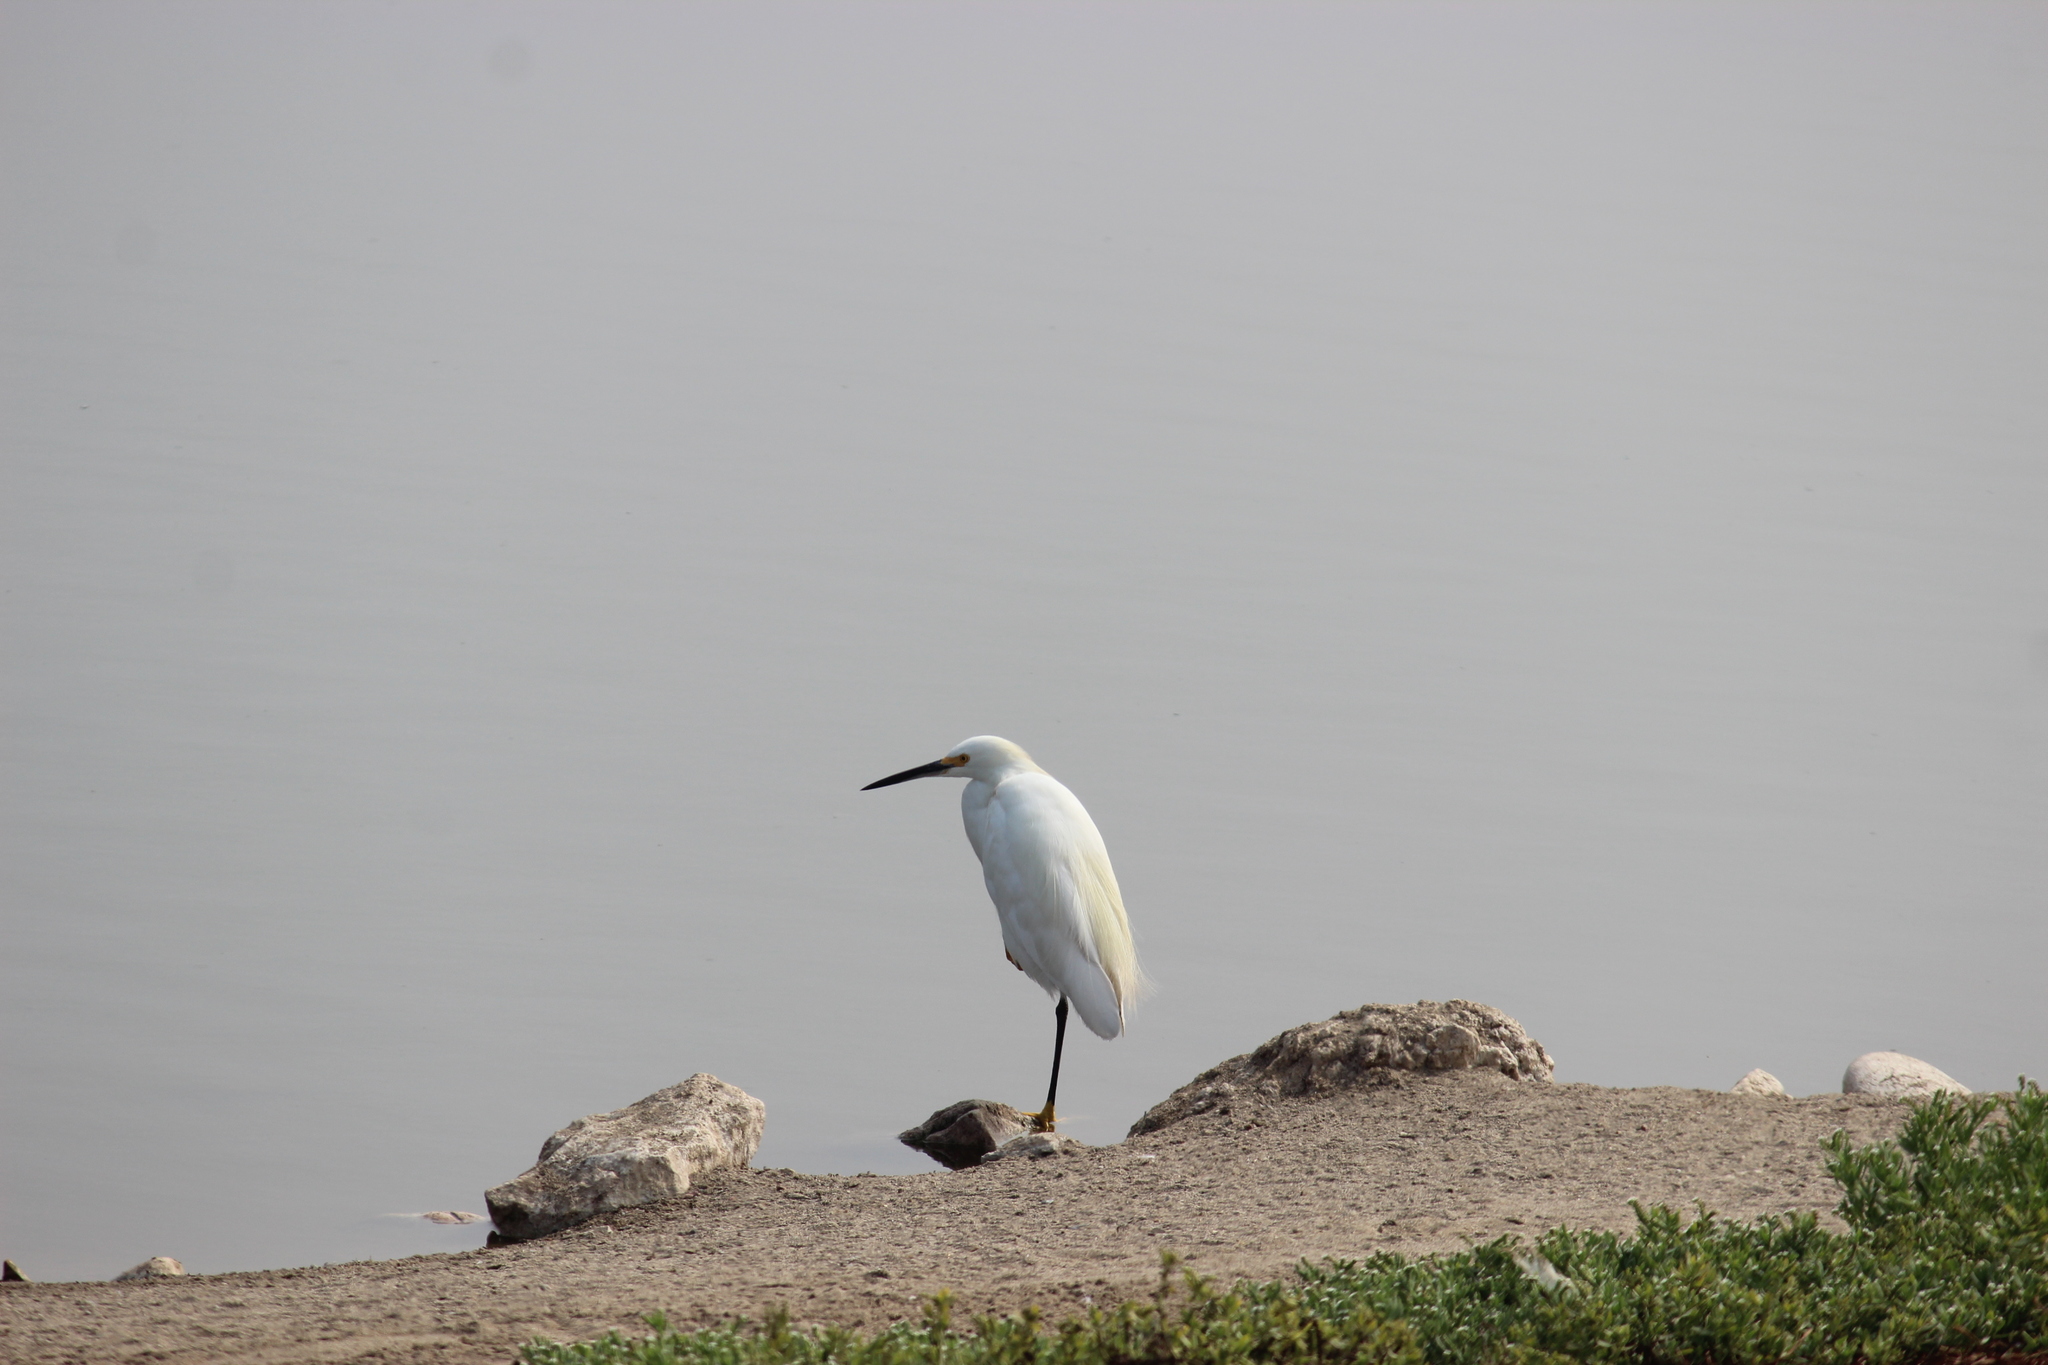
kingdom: Animalia
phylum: Chordata
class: Aves
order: Pelecaniformes
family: Ardeidae
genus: Egretta
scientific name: Egretta thula
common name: Snowy egret
